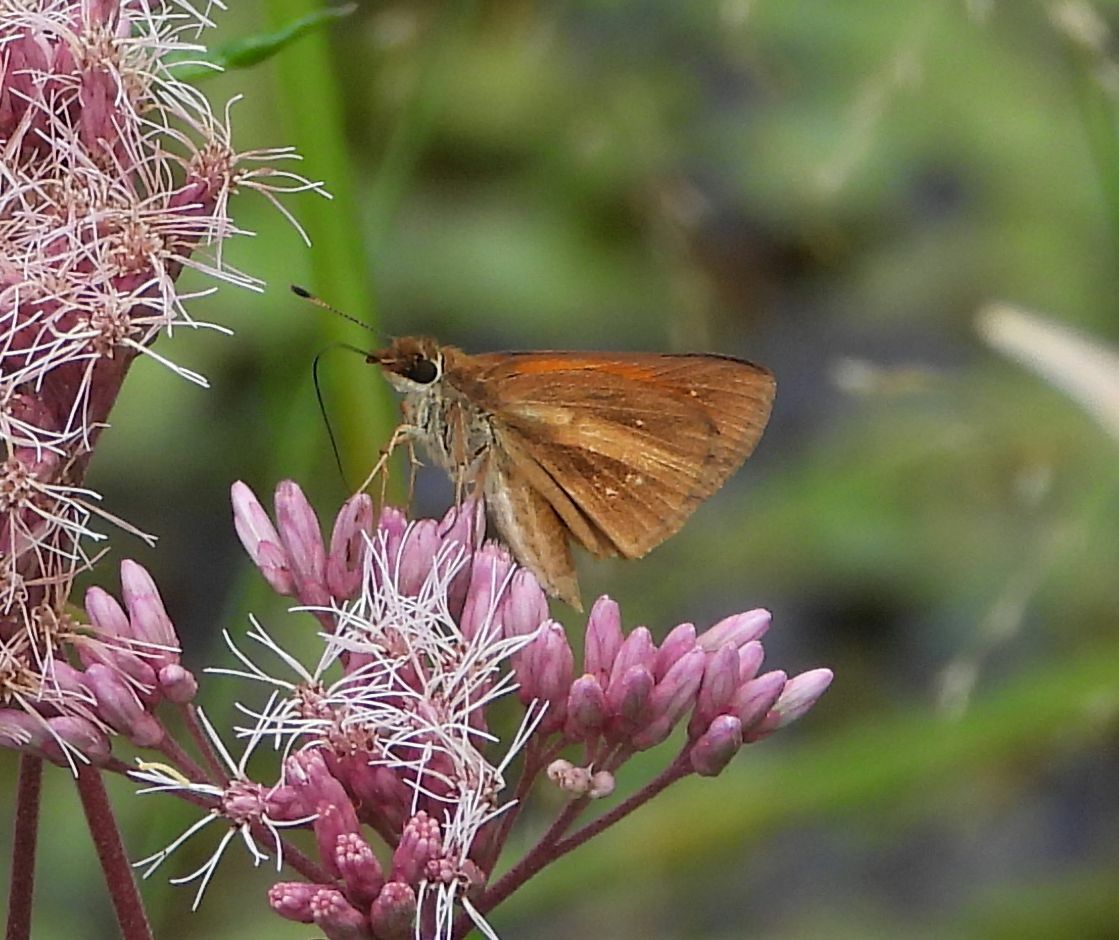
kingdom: Animalia
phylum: Arthropoda
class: Insecta
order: Lepidoptera
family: Hesperiidae
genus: Poanes
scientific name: Poanes viator
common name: Broad-winged skipper
